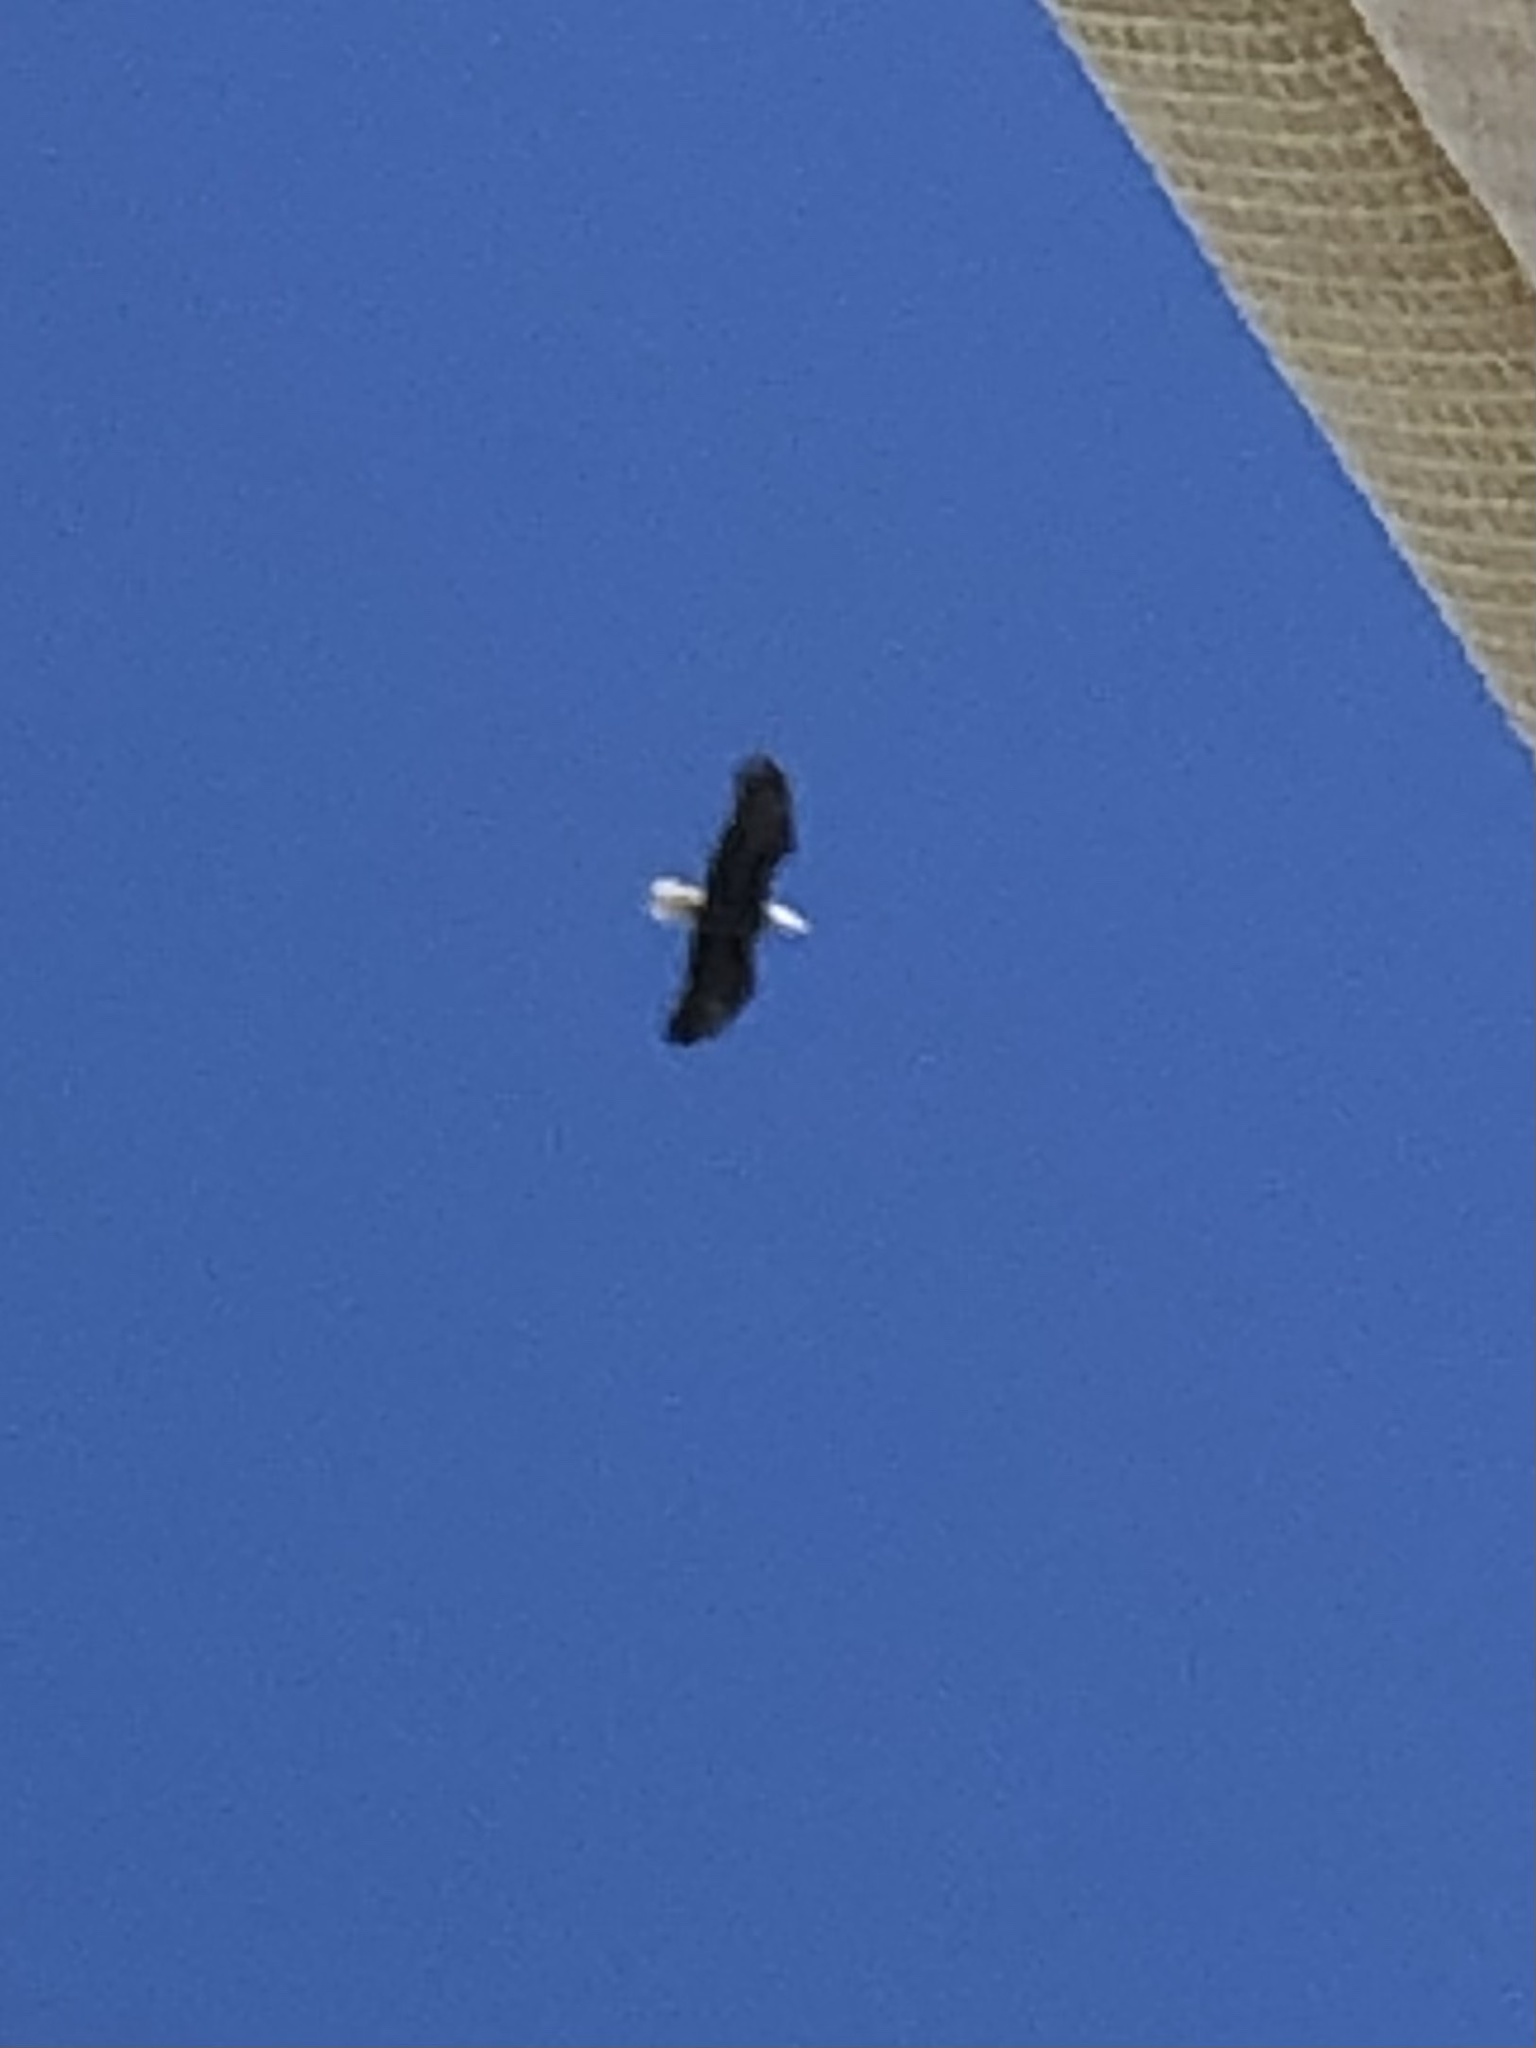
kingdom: Animalia
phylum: Chordata
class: Aves
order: Accipitriformes
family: Accipitridae
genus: Haliaeetus
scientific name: Haliaeetus leucocephalus
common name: Bald eagle
